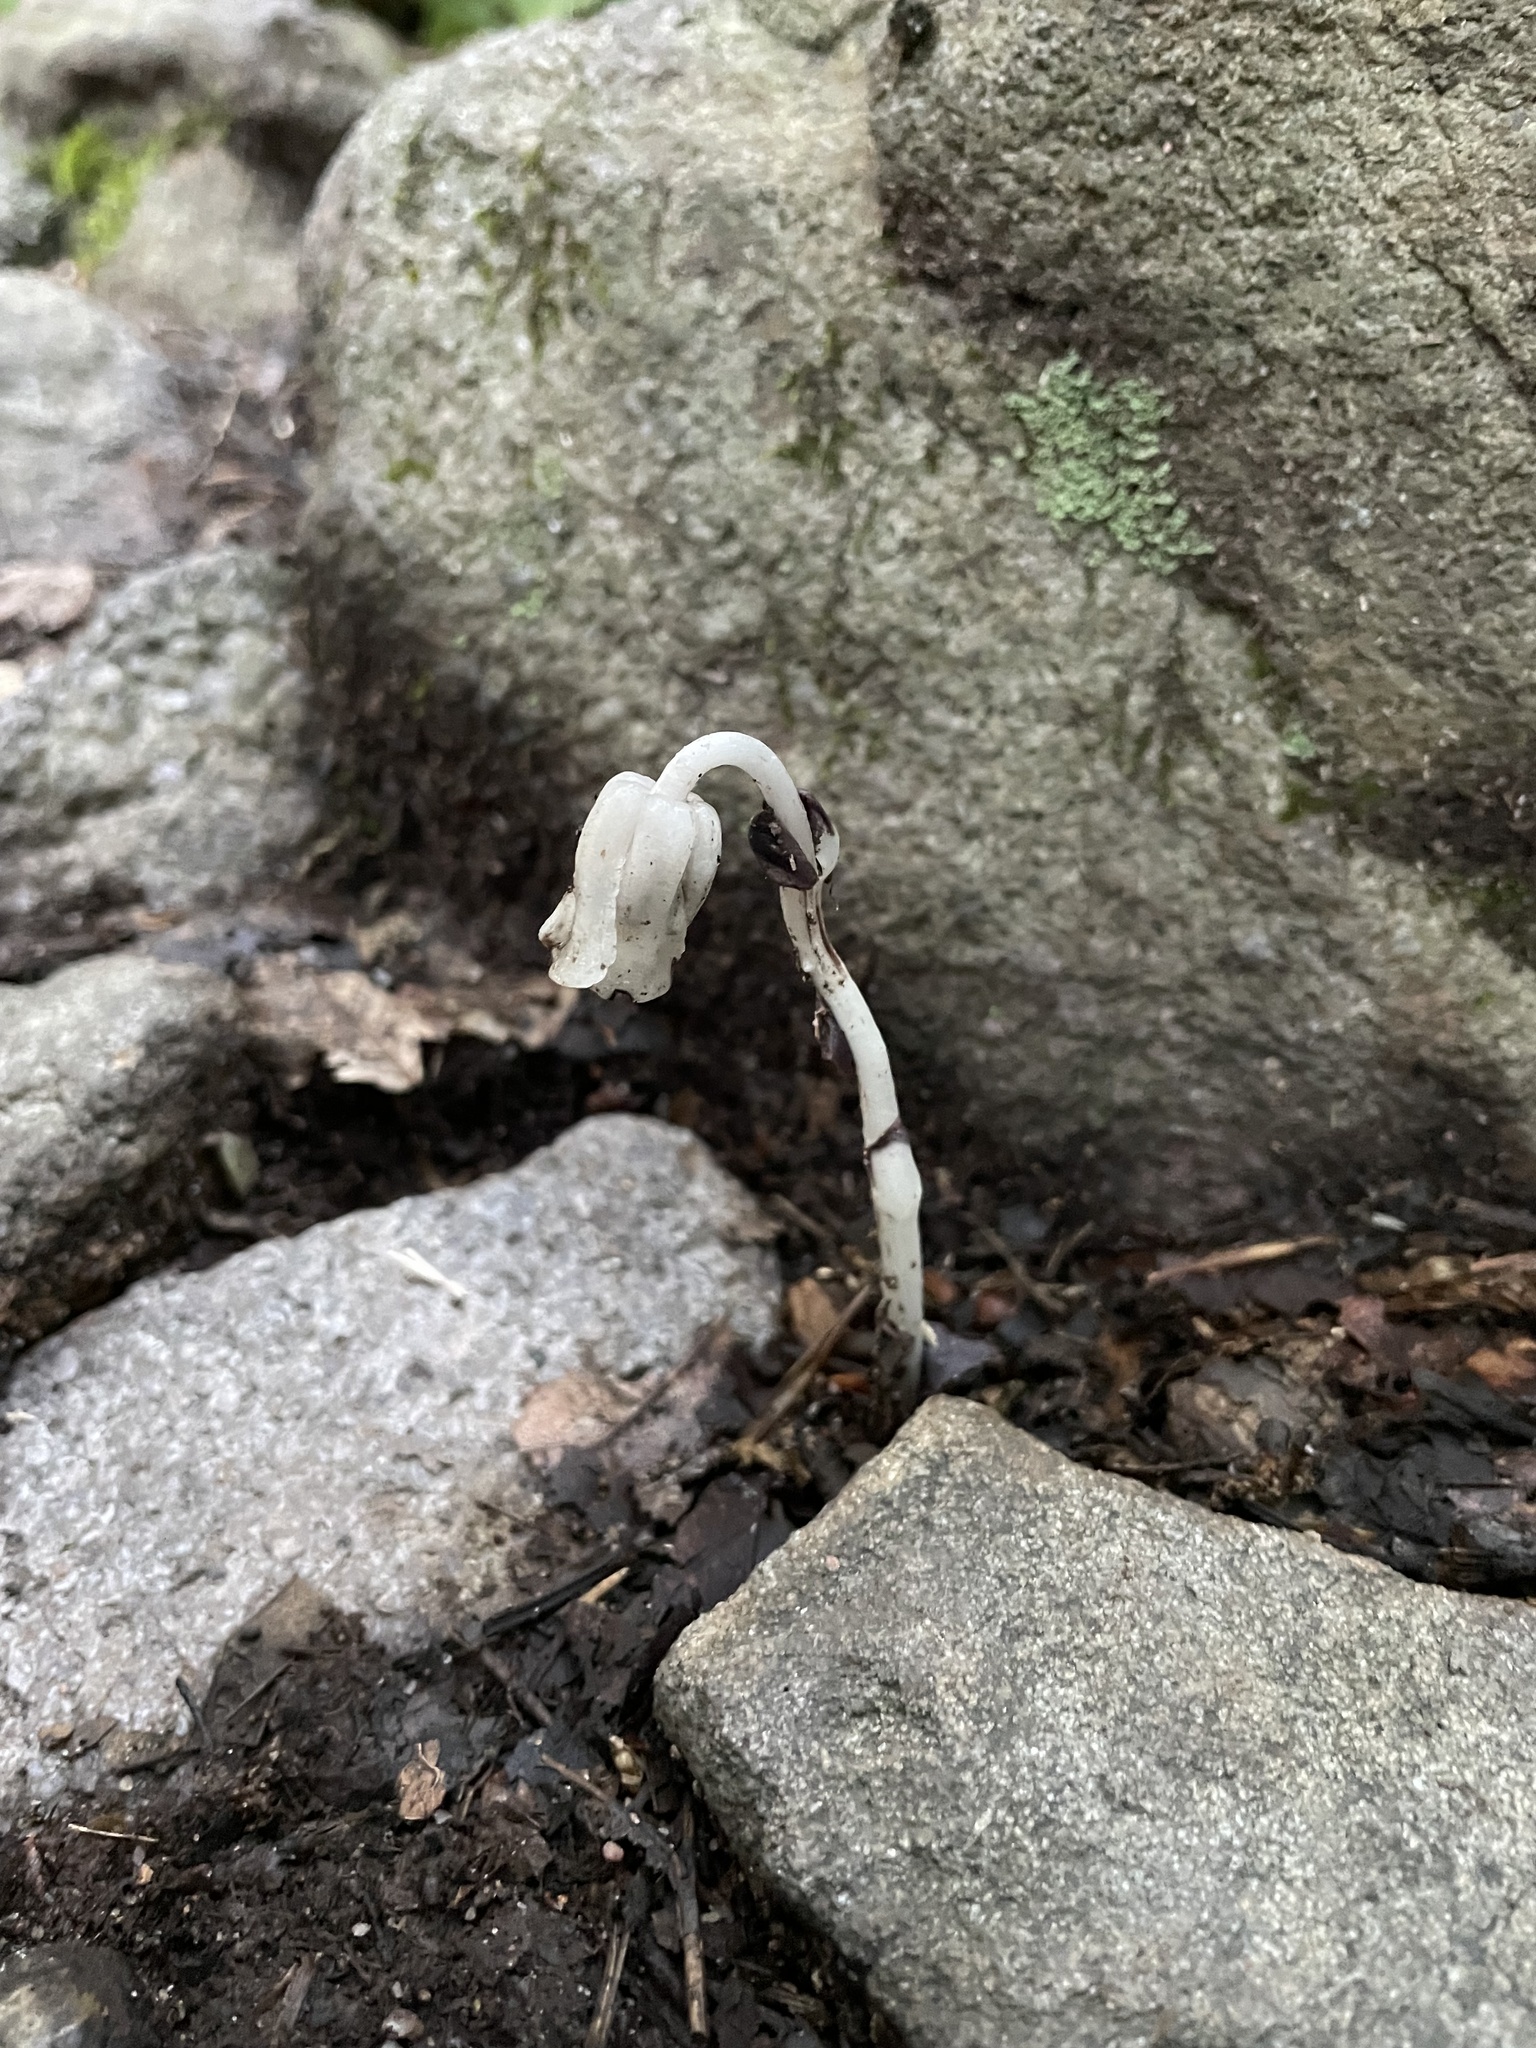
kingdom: Plantae
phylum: Tracheophyta
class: Magnoliopsida
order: Ericales
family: Ericaceae
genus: Monotropa
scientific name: Monotropa uniflora
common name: Convulsion root
